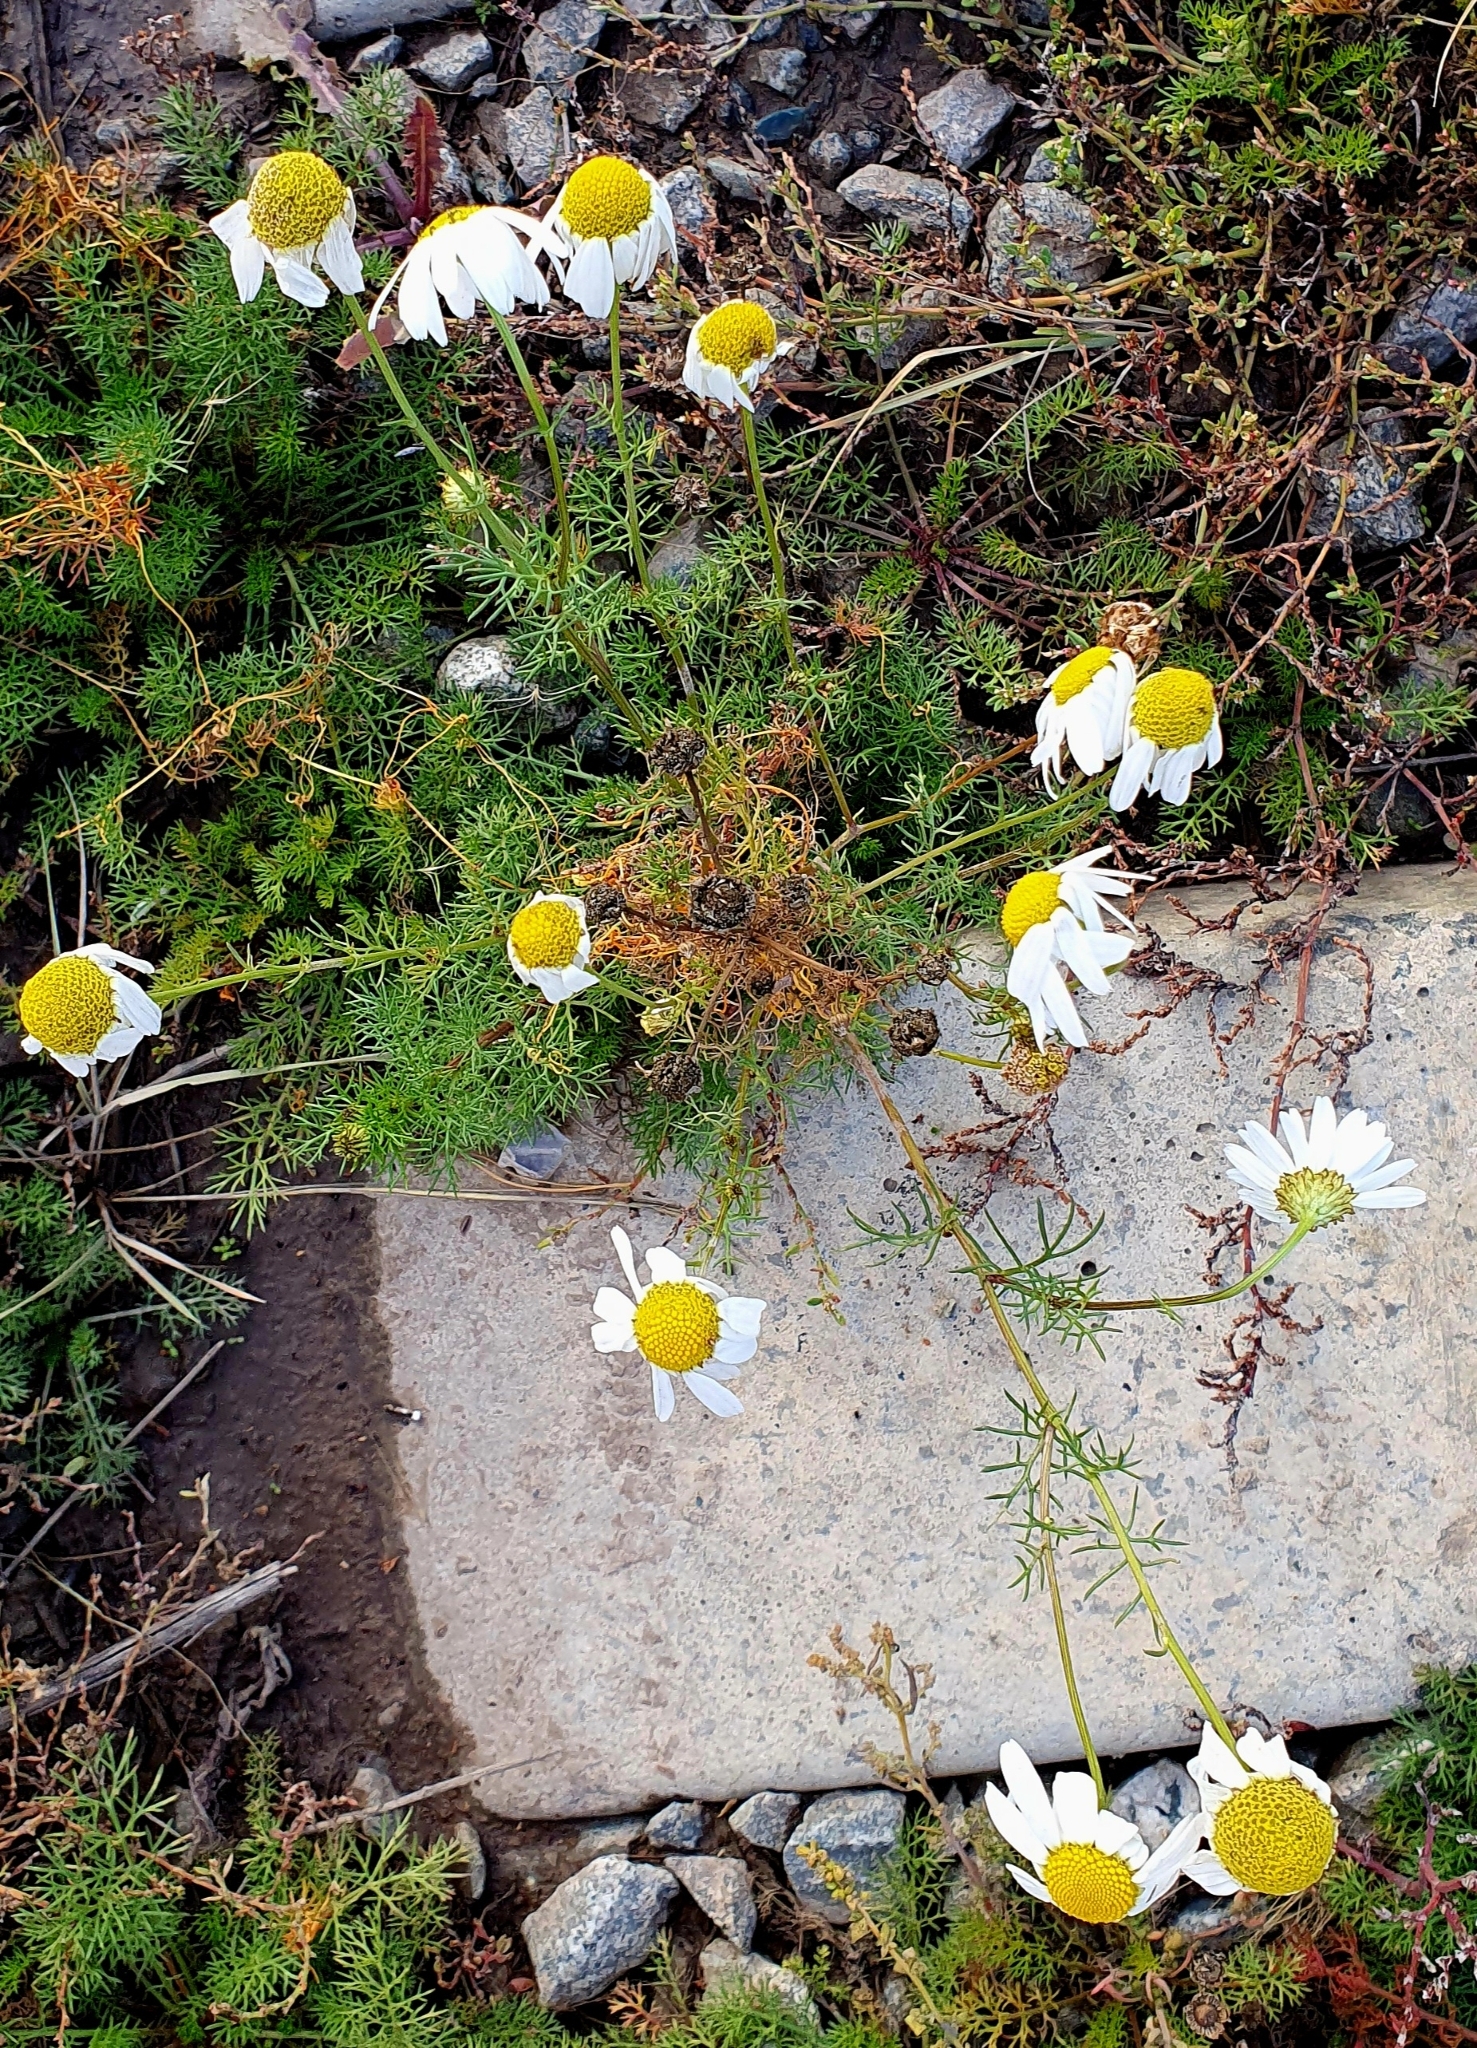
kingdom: Plantae
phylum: Tracheophyta
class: Magnoliopsida
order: Asterales
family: Asteraceae
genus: Tripleurospermum
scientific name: Tripleurospermum inodorum
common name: Scentless mayweed
